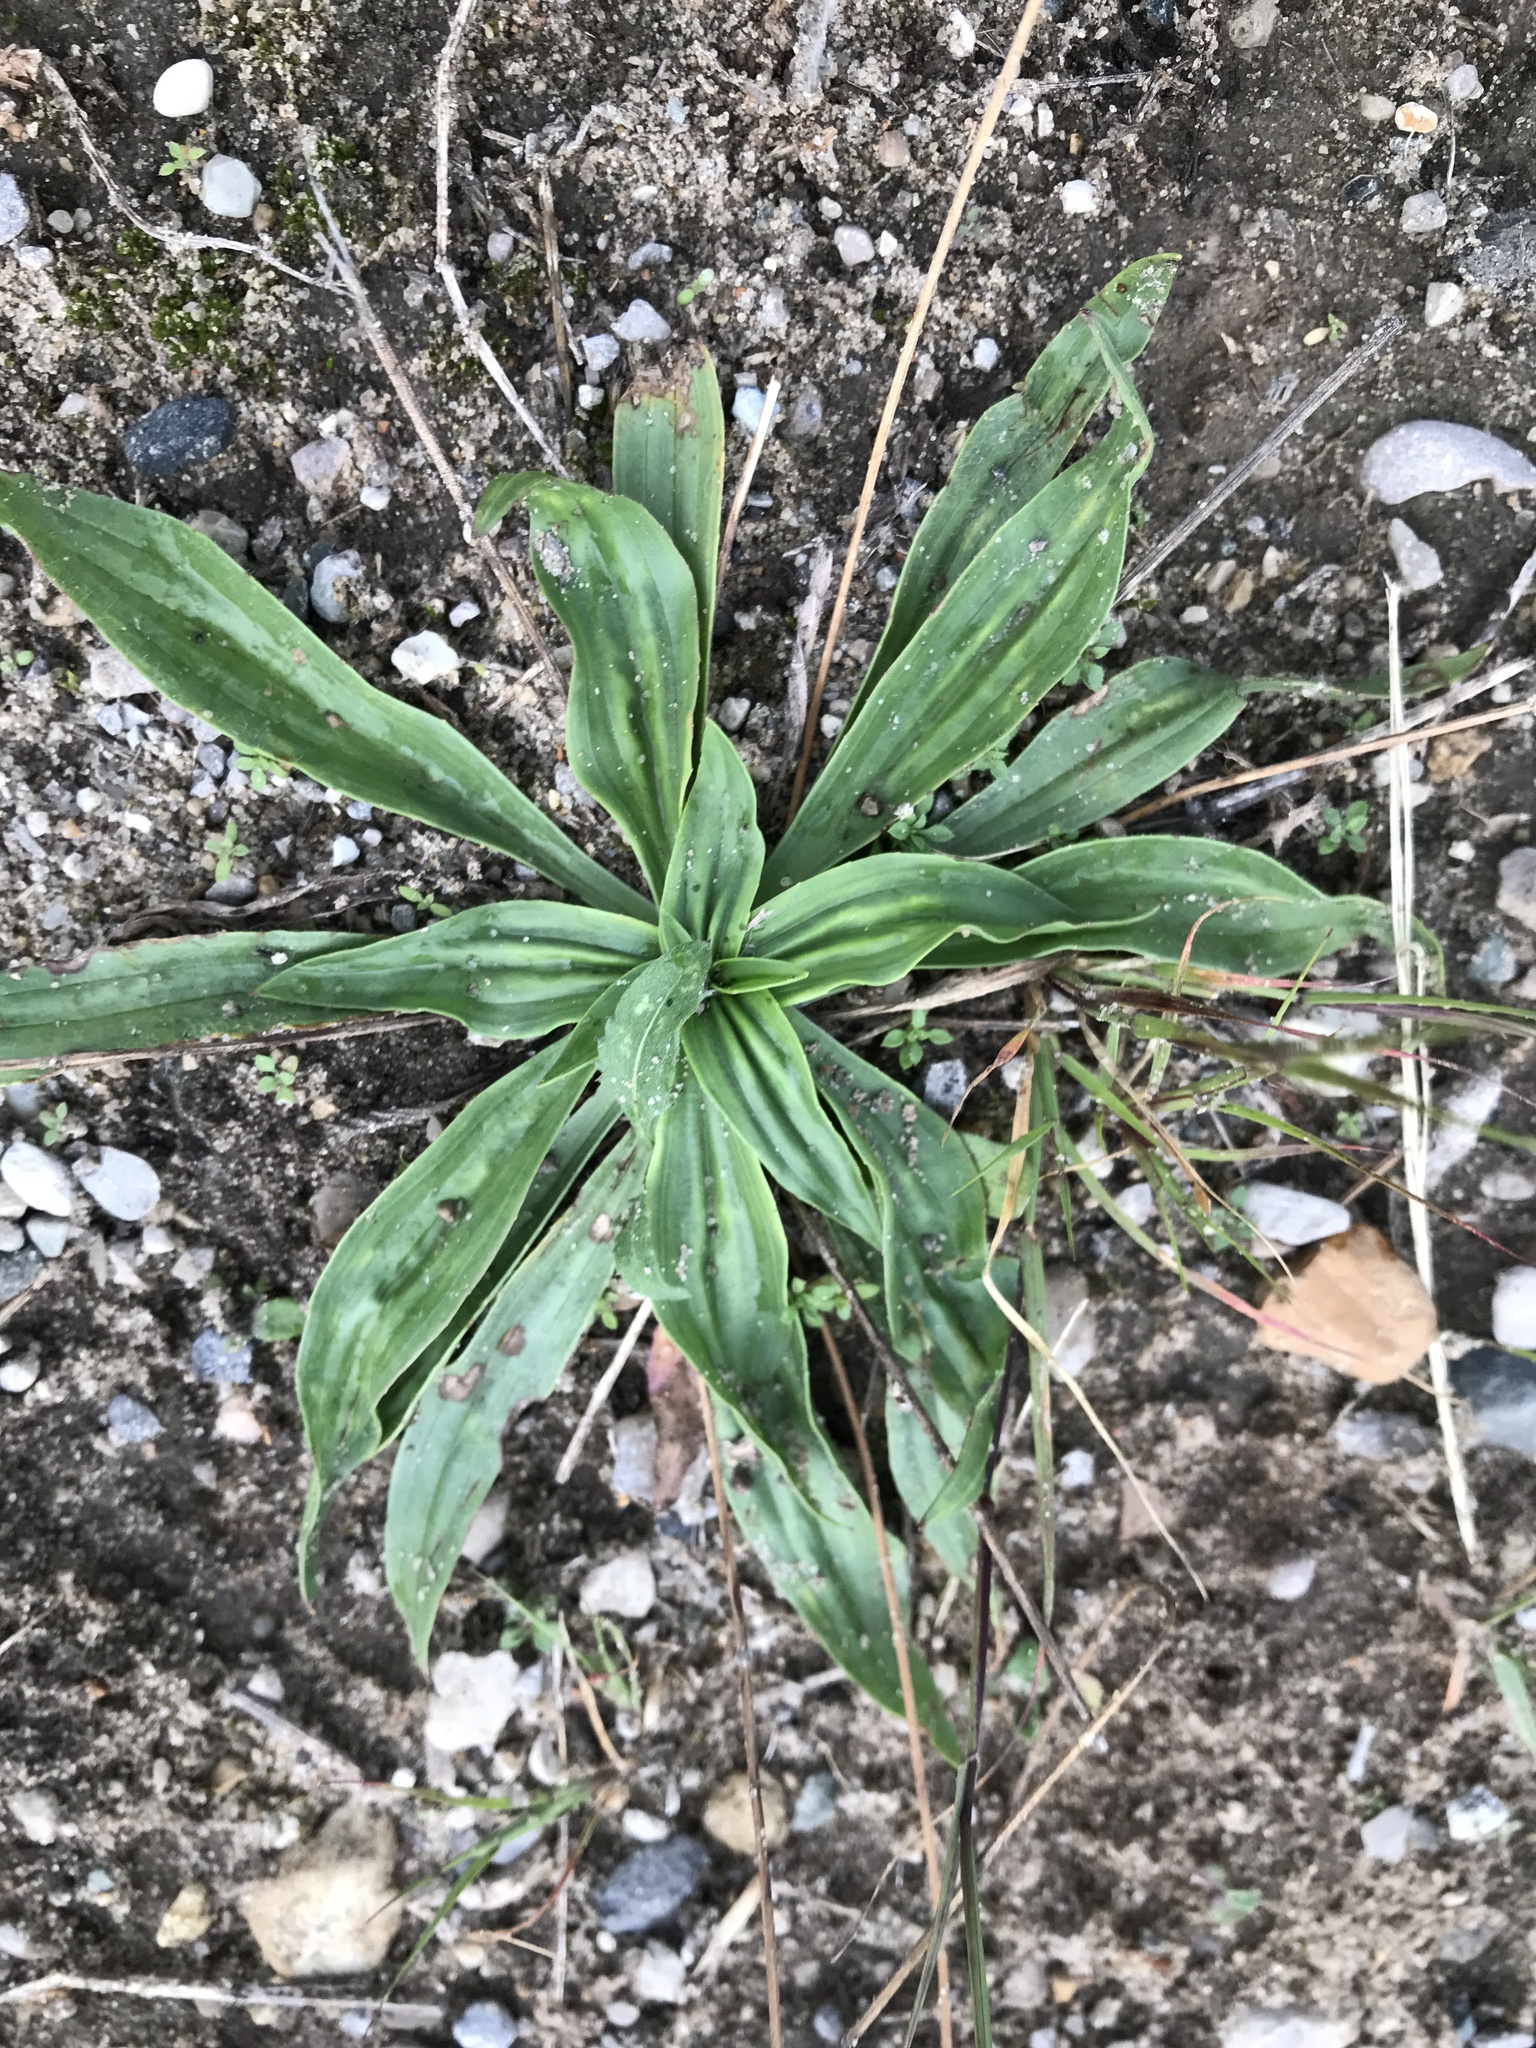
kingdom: Plantae
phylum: Tracheophyta
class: Magnoliopsida
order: Lamiales
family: Plantaginaceae
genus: Plantago
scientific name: Plantago lanceolata
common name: Ribwort plantain
